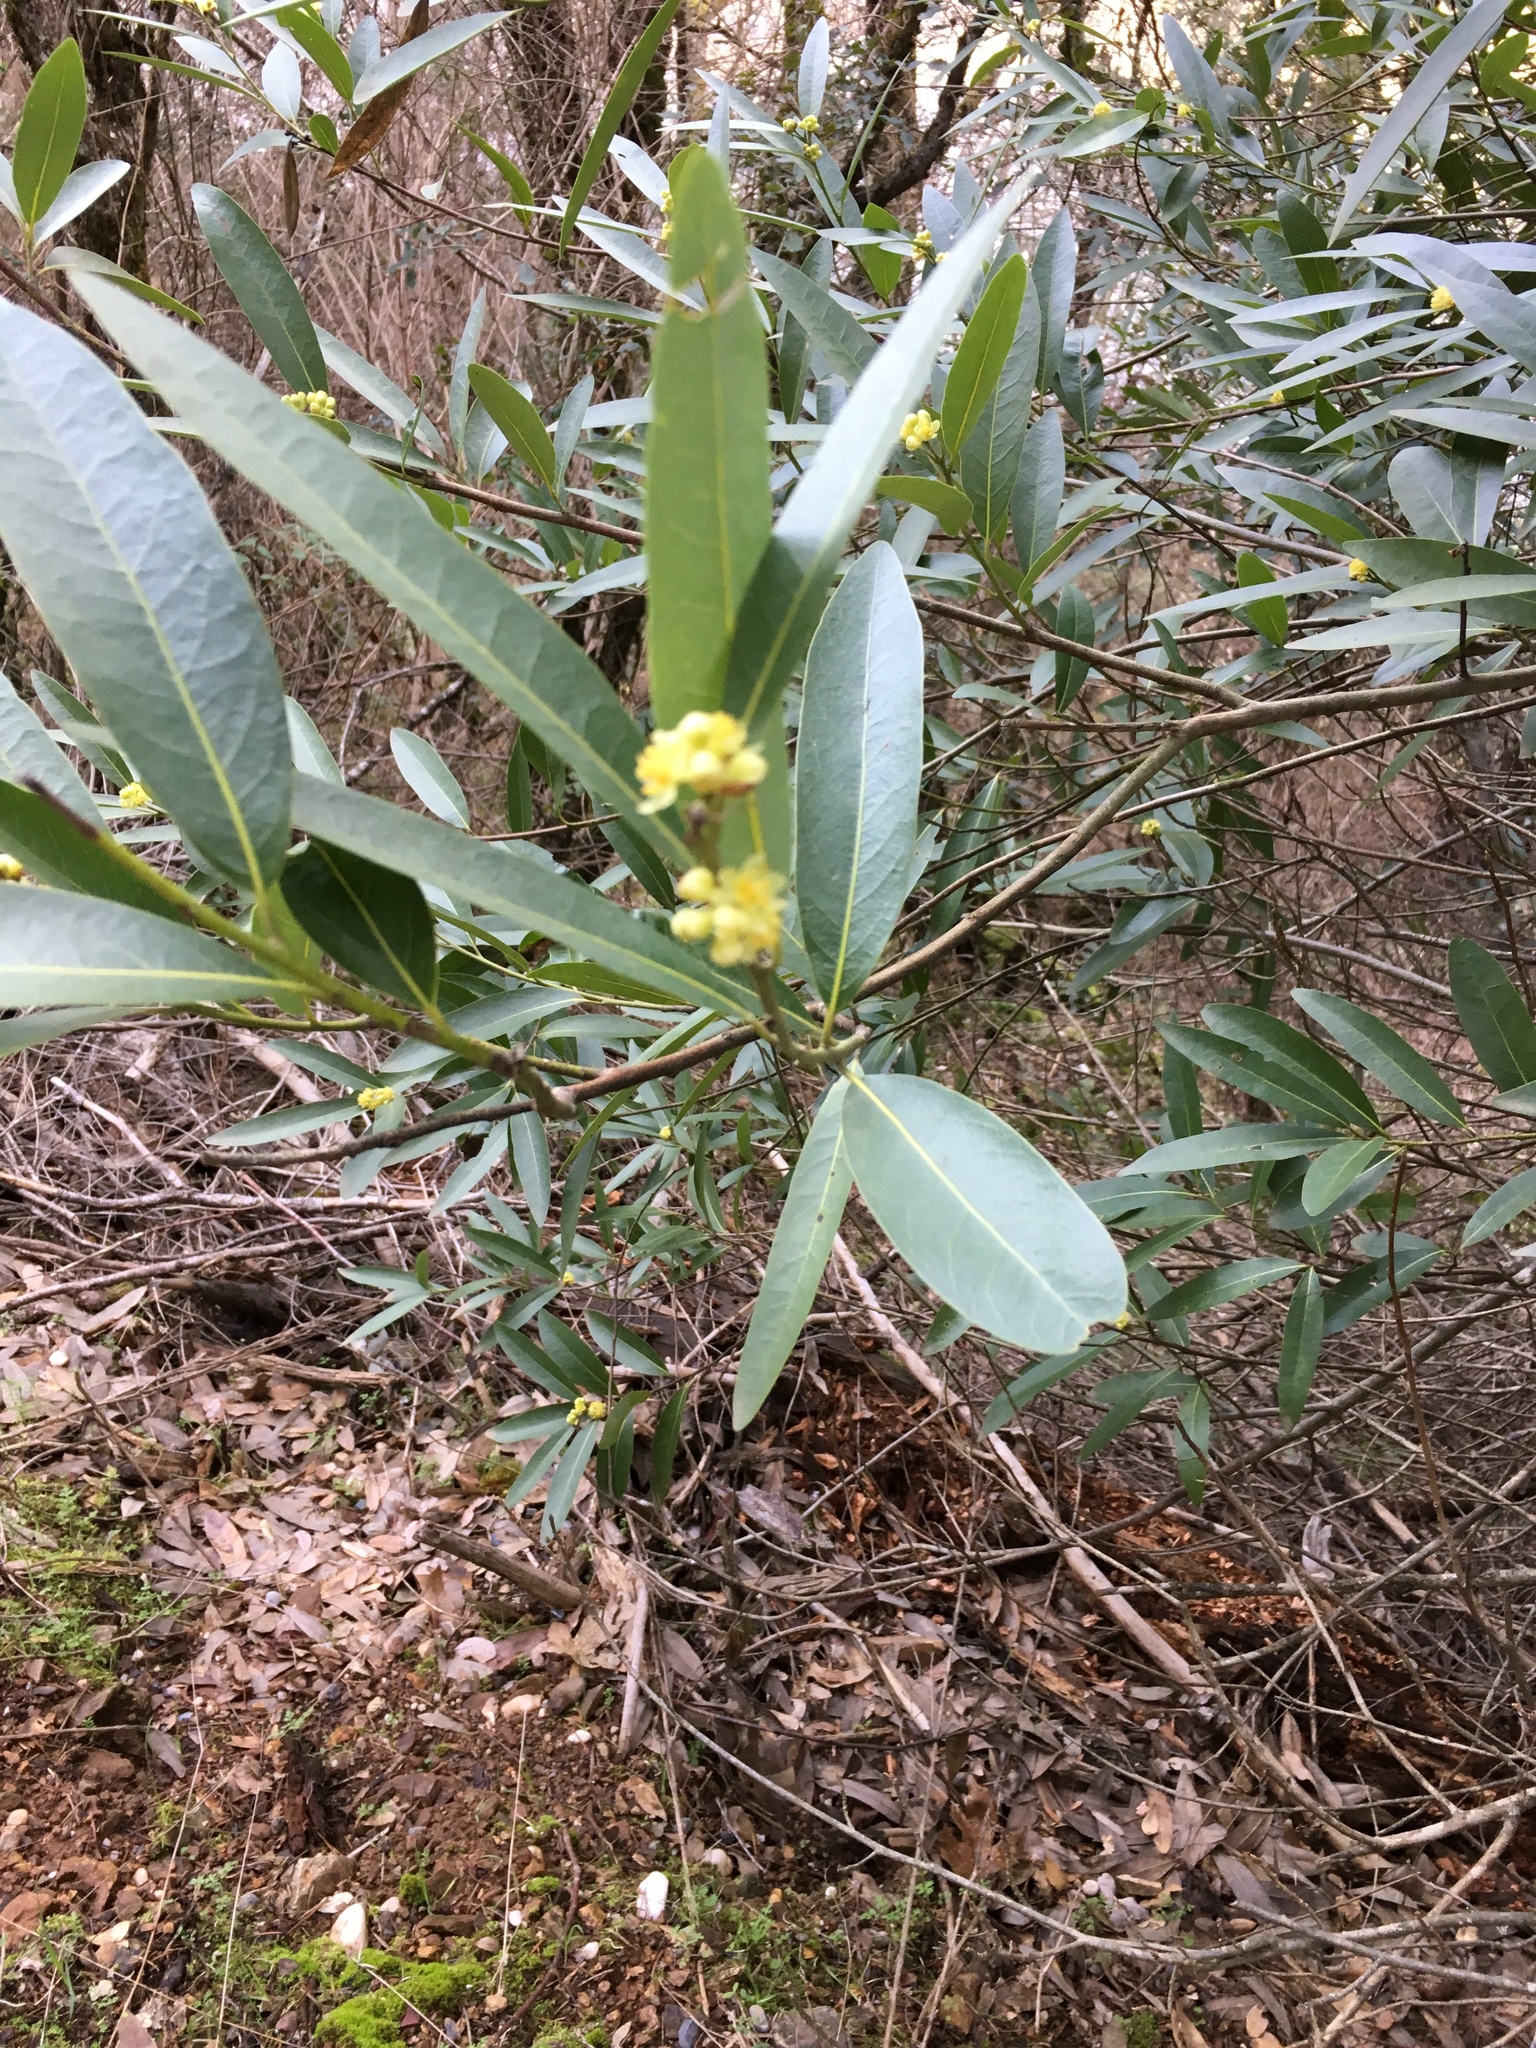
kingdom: Plantae
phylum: Tracheophyta
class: Magnoliopsida
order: Laurales
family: Lauraceae
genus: Umbellularia
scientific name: Umbellularia californica
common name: California bay
